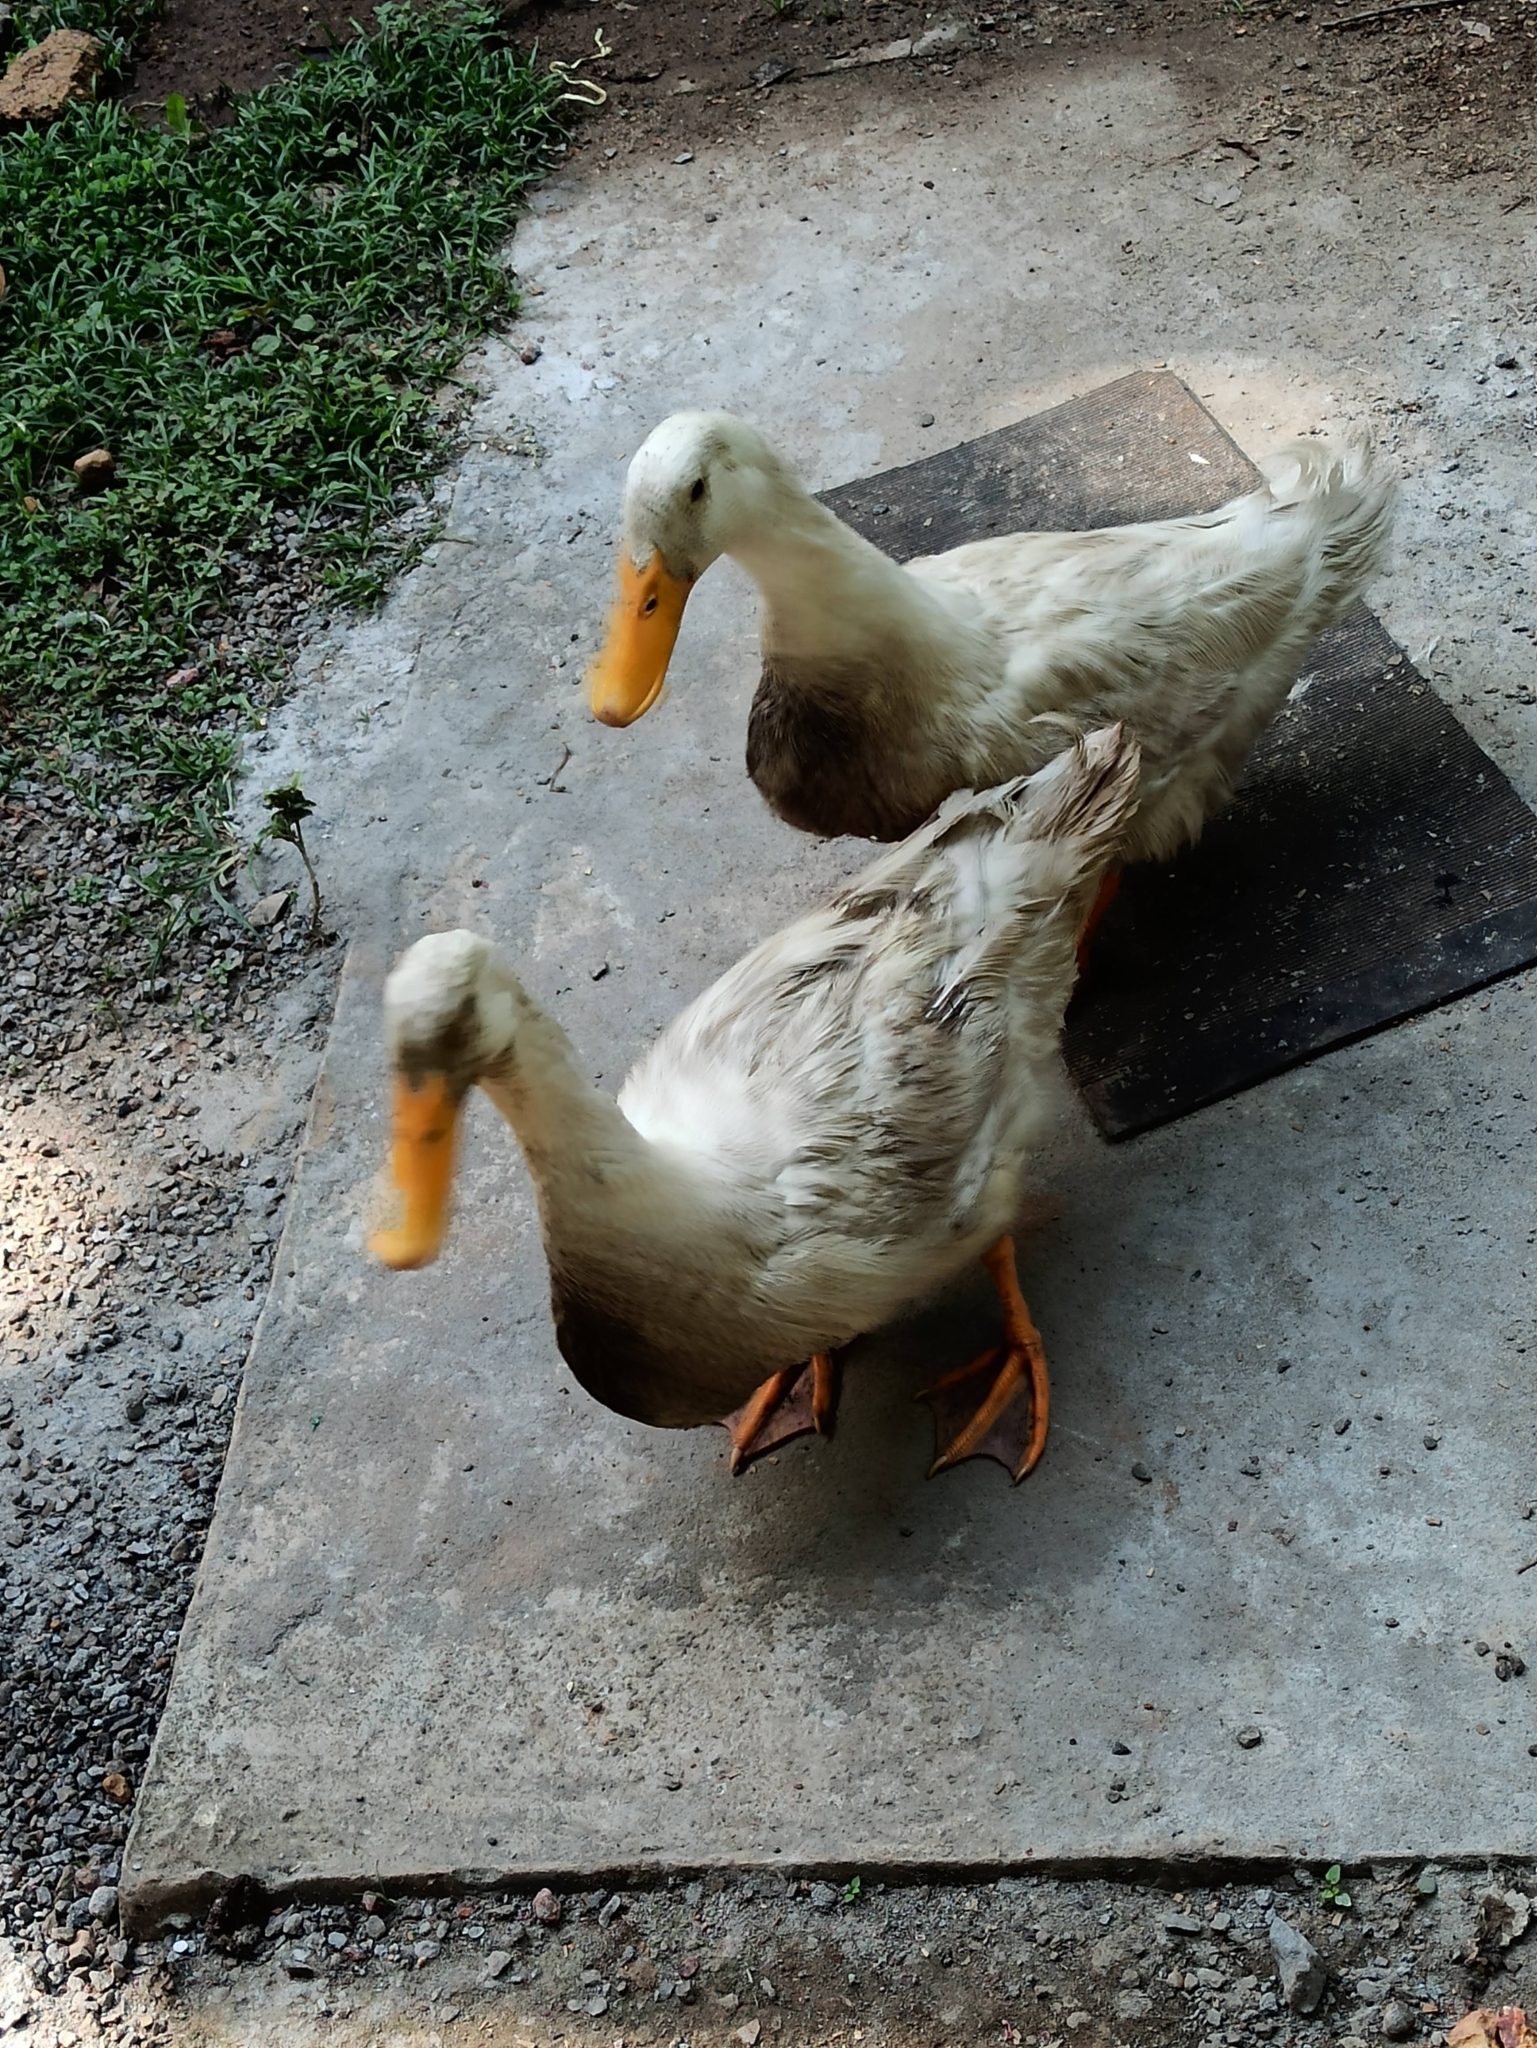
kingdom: Animalia
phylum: Chordata
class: Aves
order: Anseriformes
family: Anatidae
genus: Anas
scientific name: Anas platyrhynchos
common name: Mallard
